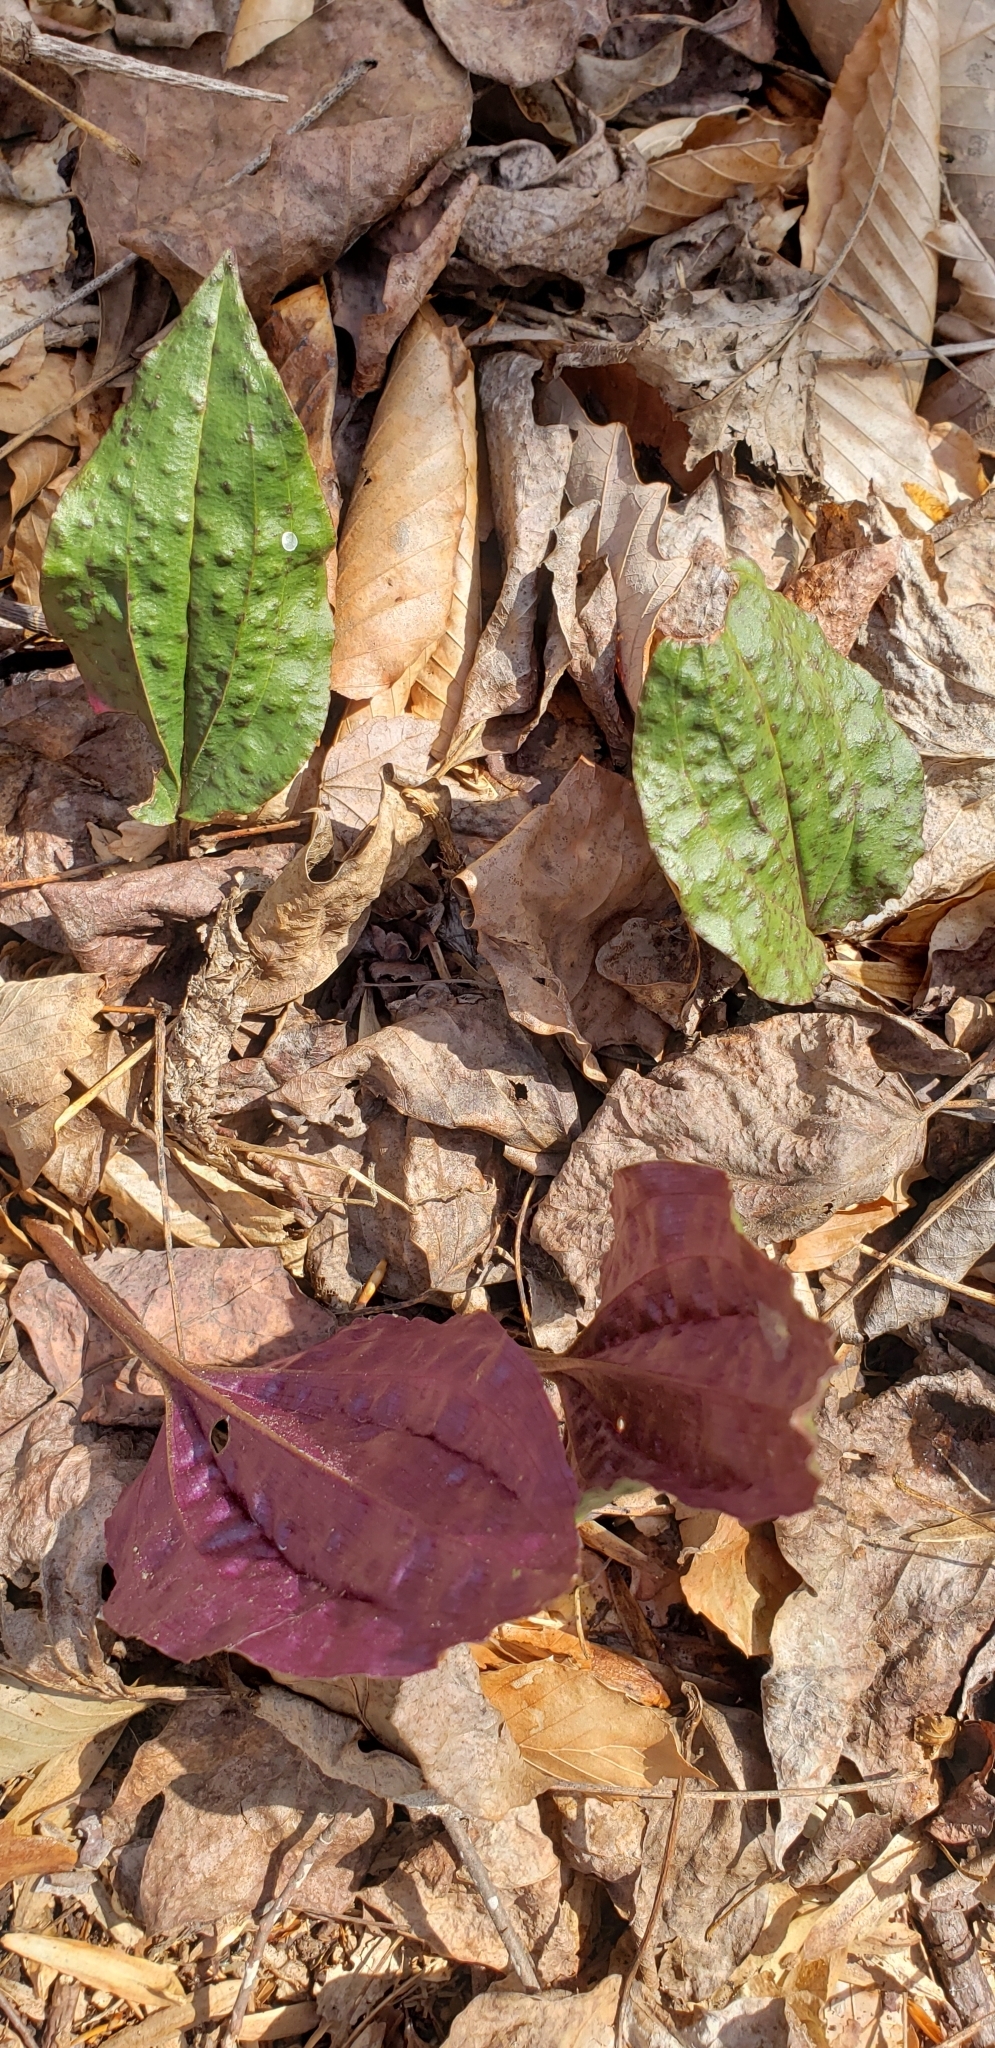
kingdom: Plantae
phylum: Tracheophyta
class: Liliopsida
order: Asparagales
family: Orchidaceae
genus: Tipularia
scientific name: Tipularia discolor
